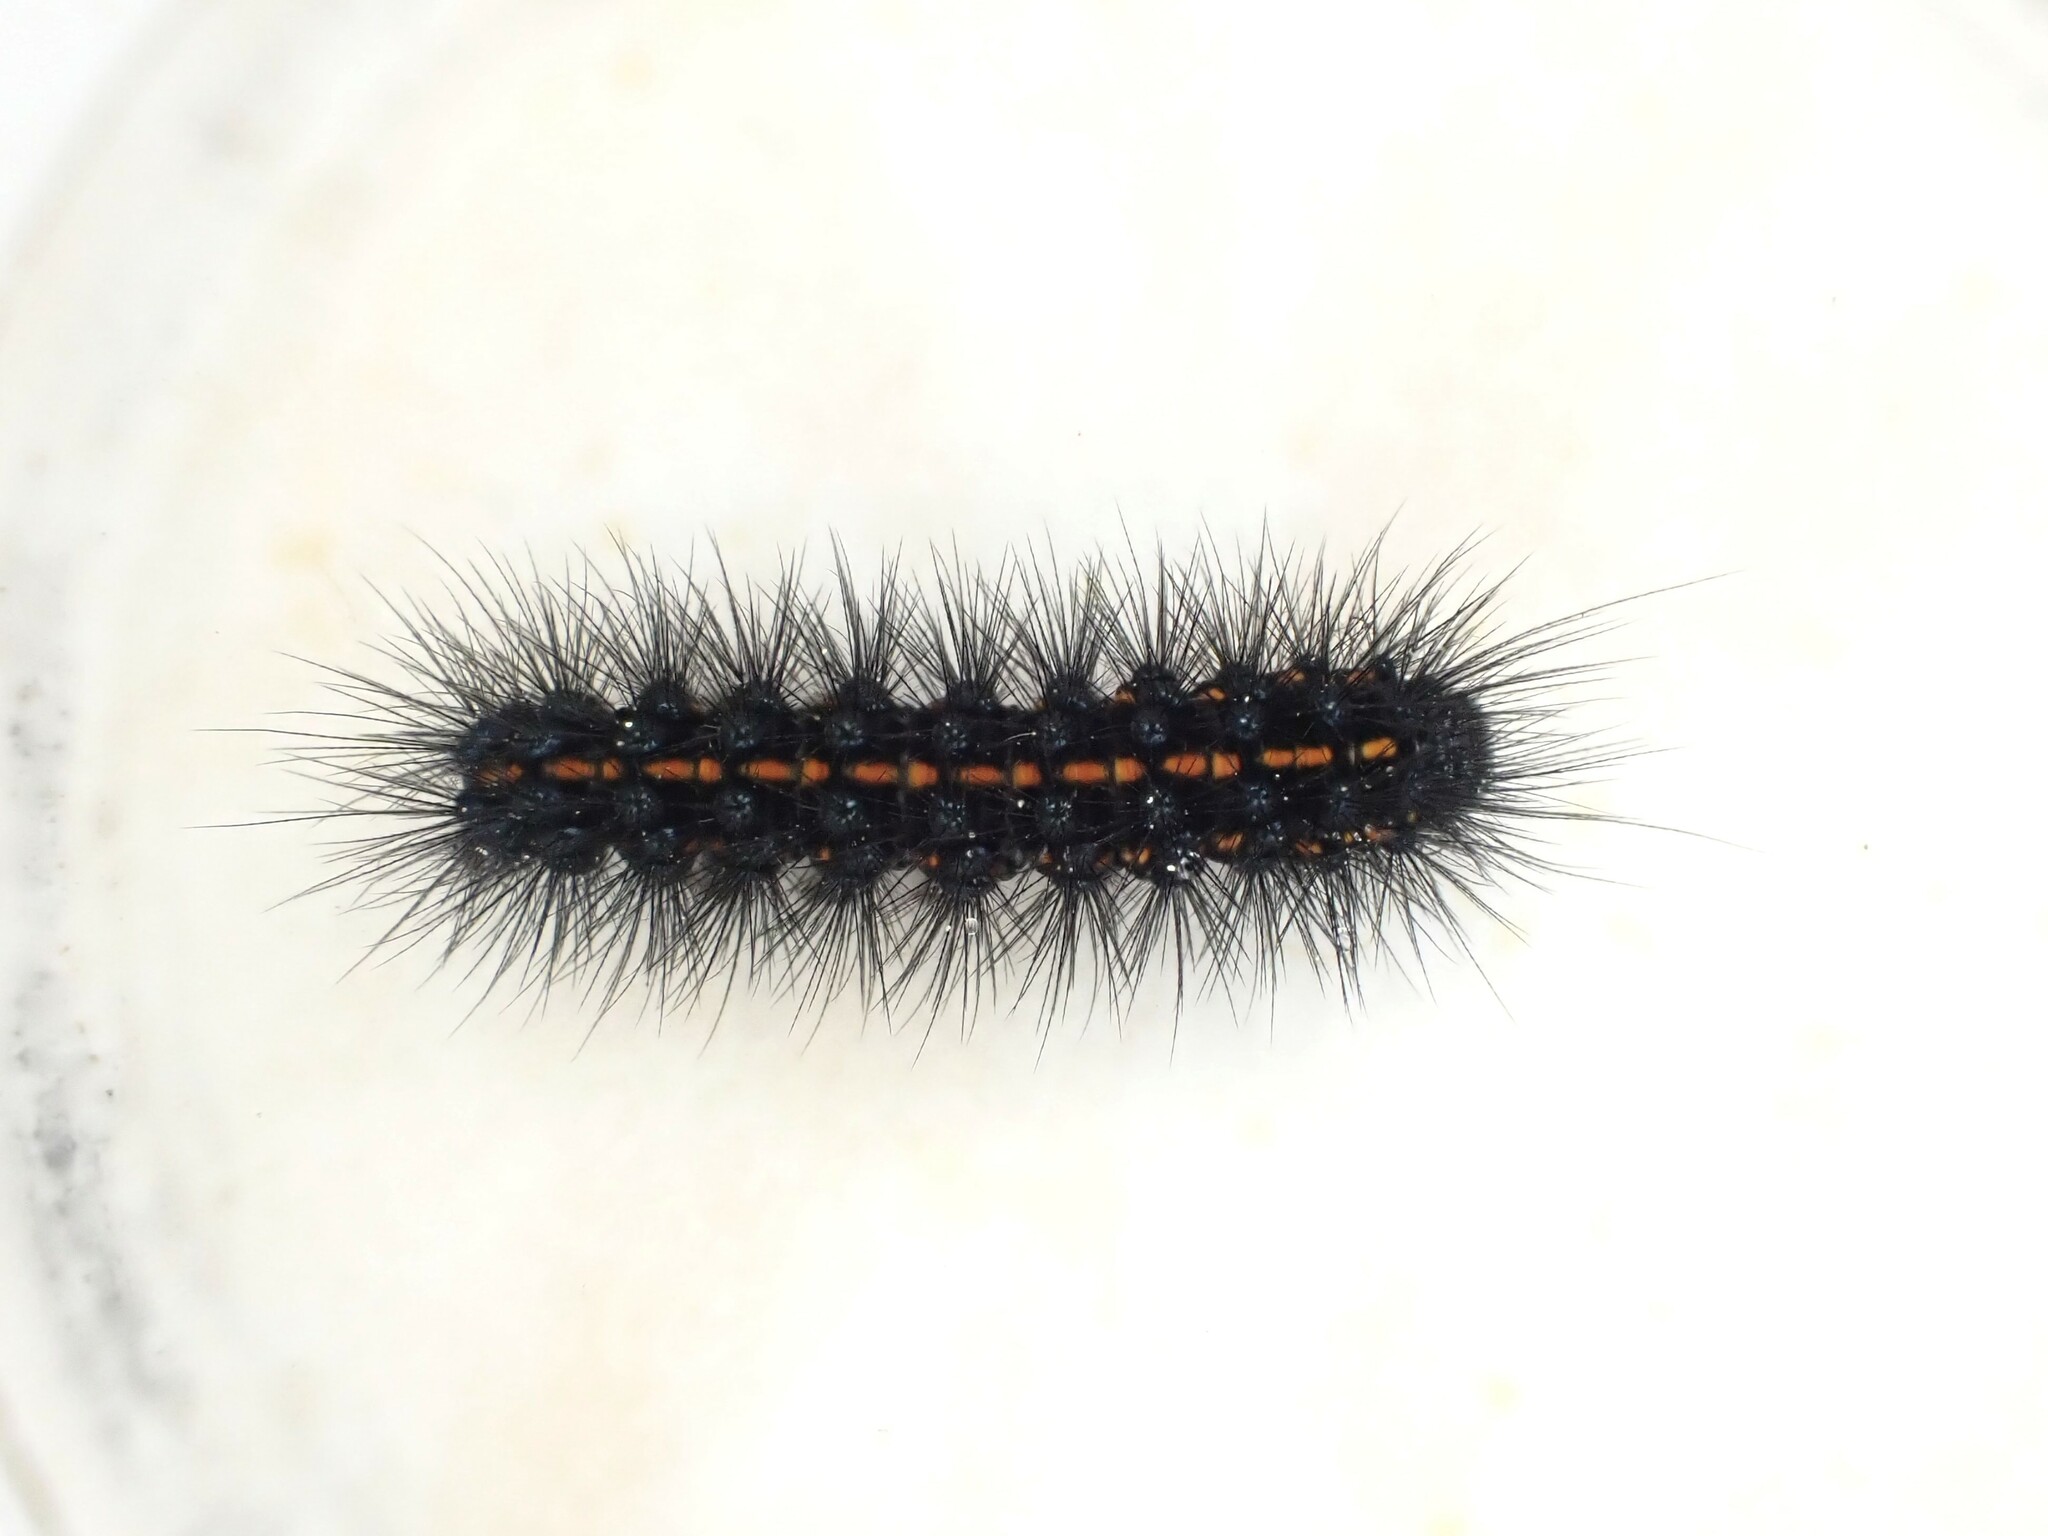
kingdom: Animalia
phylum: Arthropoda
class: Insecta
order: Lepidoptera
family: Erebidae
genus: Nyctemera
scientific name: Nyctemera annulatum
